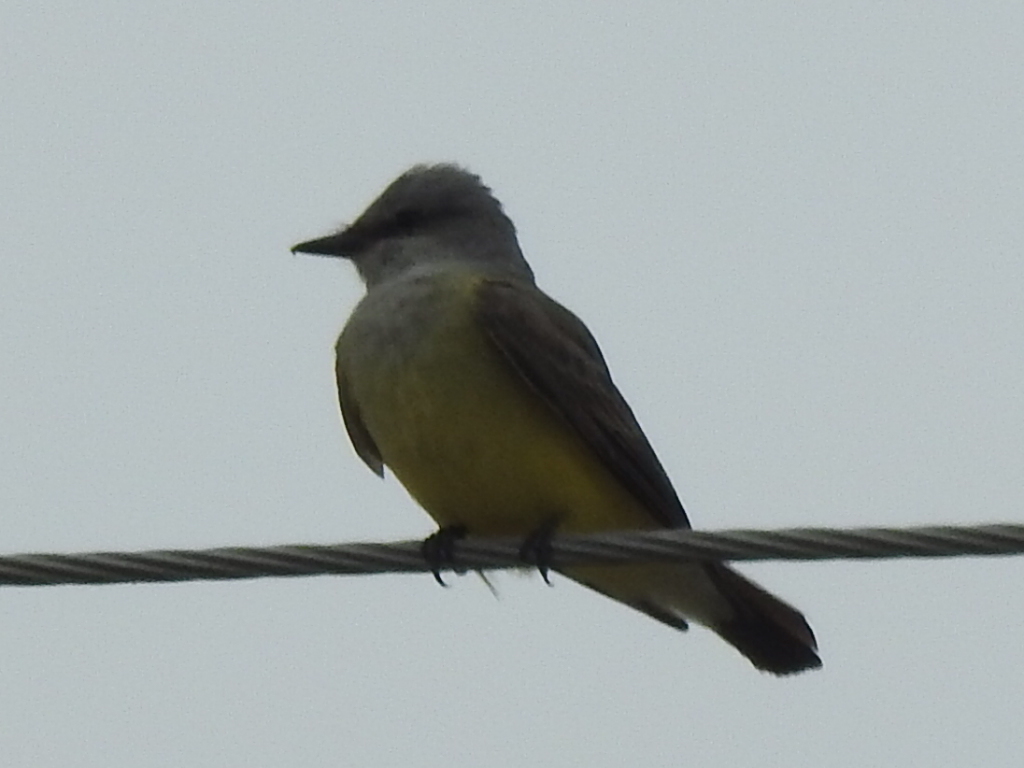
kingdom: Animalia
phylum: Chordata
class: Aves
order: Passeriformes
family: Tyrannidae
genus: Tyrannus
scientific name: Tyrannus verticalis
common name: Western kingbird
